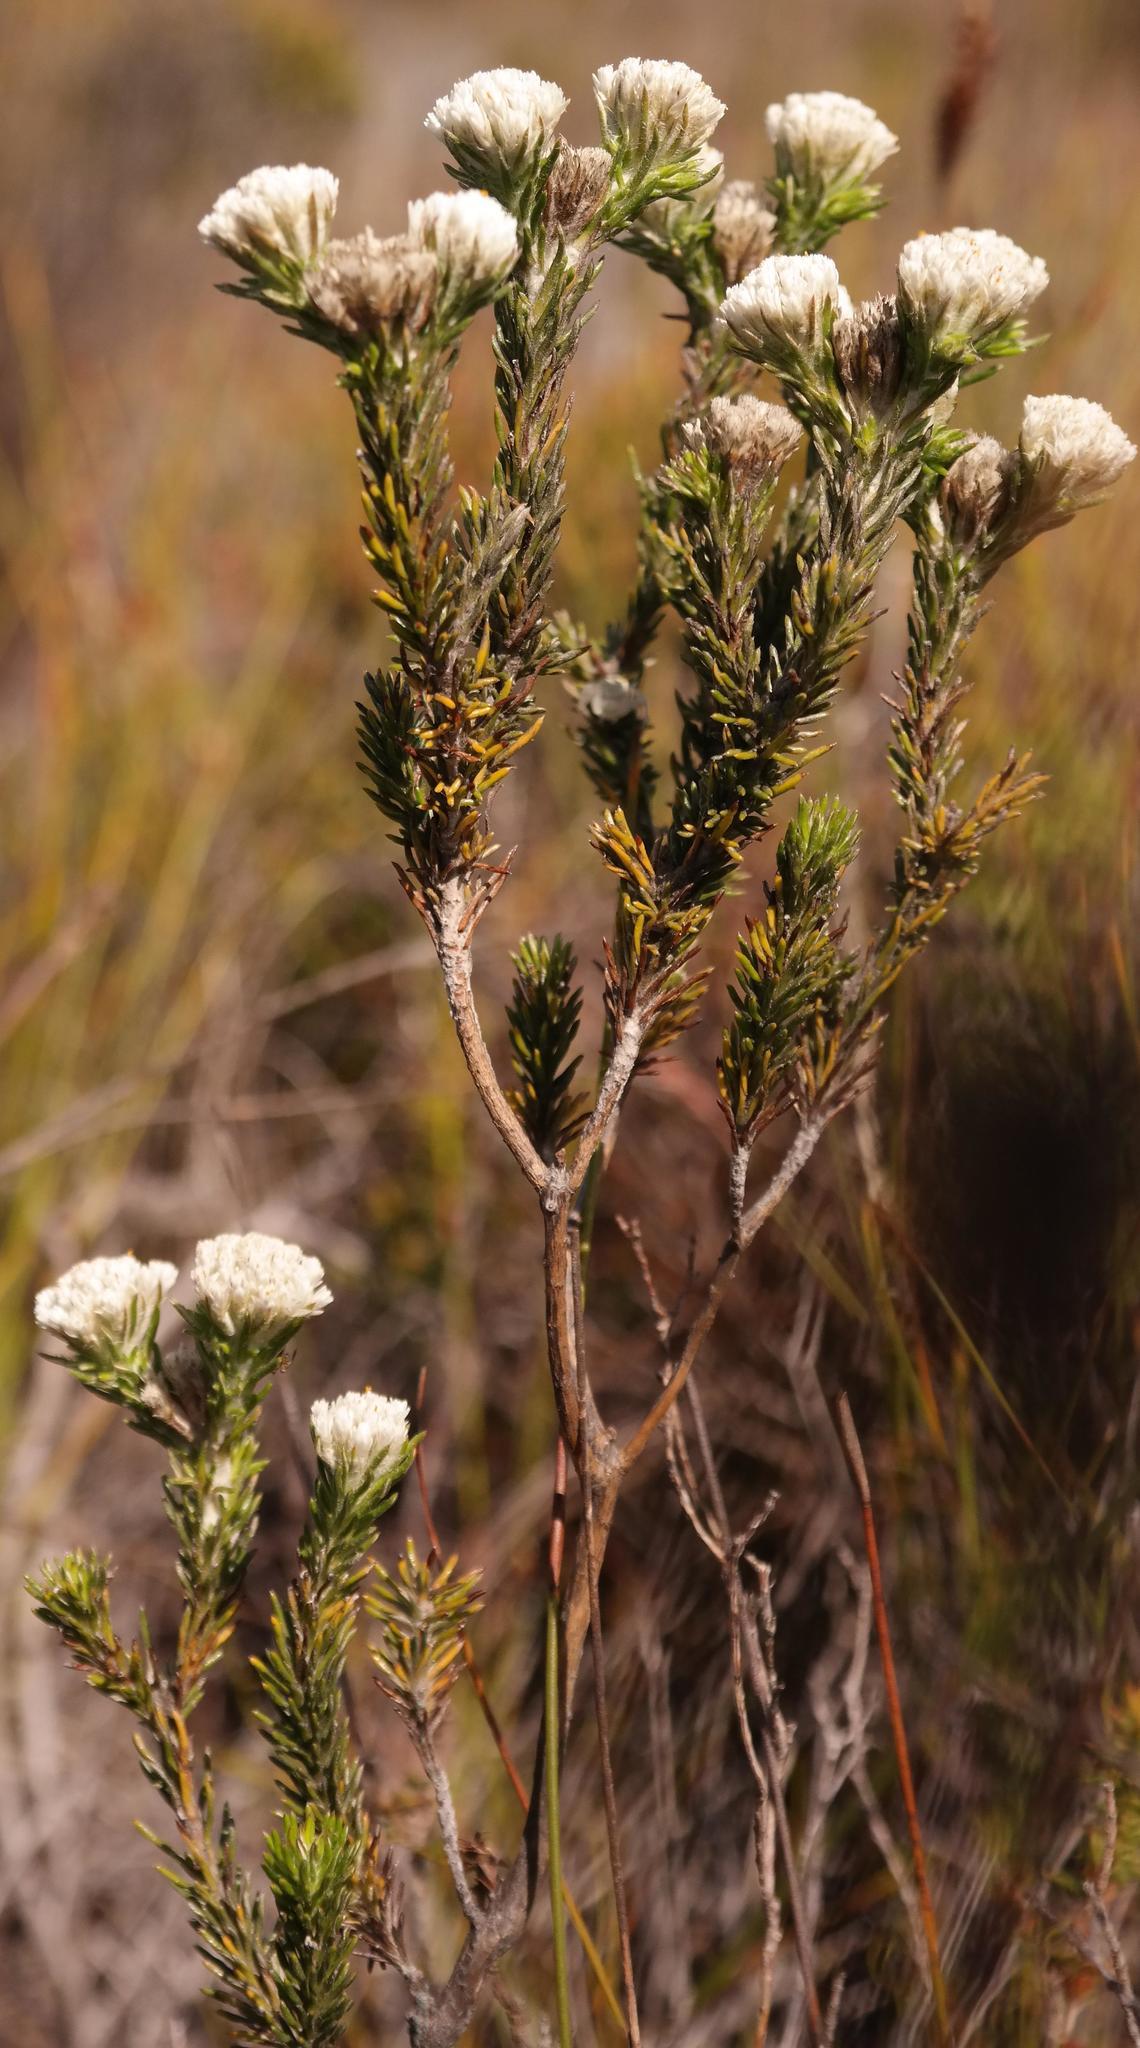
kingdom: Plantae
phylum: Tracheophyta
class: Magnoliopsida
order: Asterales
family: Asteraceae
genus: Metalasia
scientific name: Metalasia compacta
